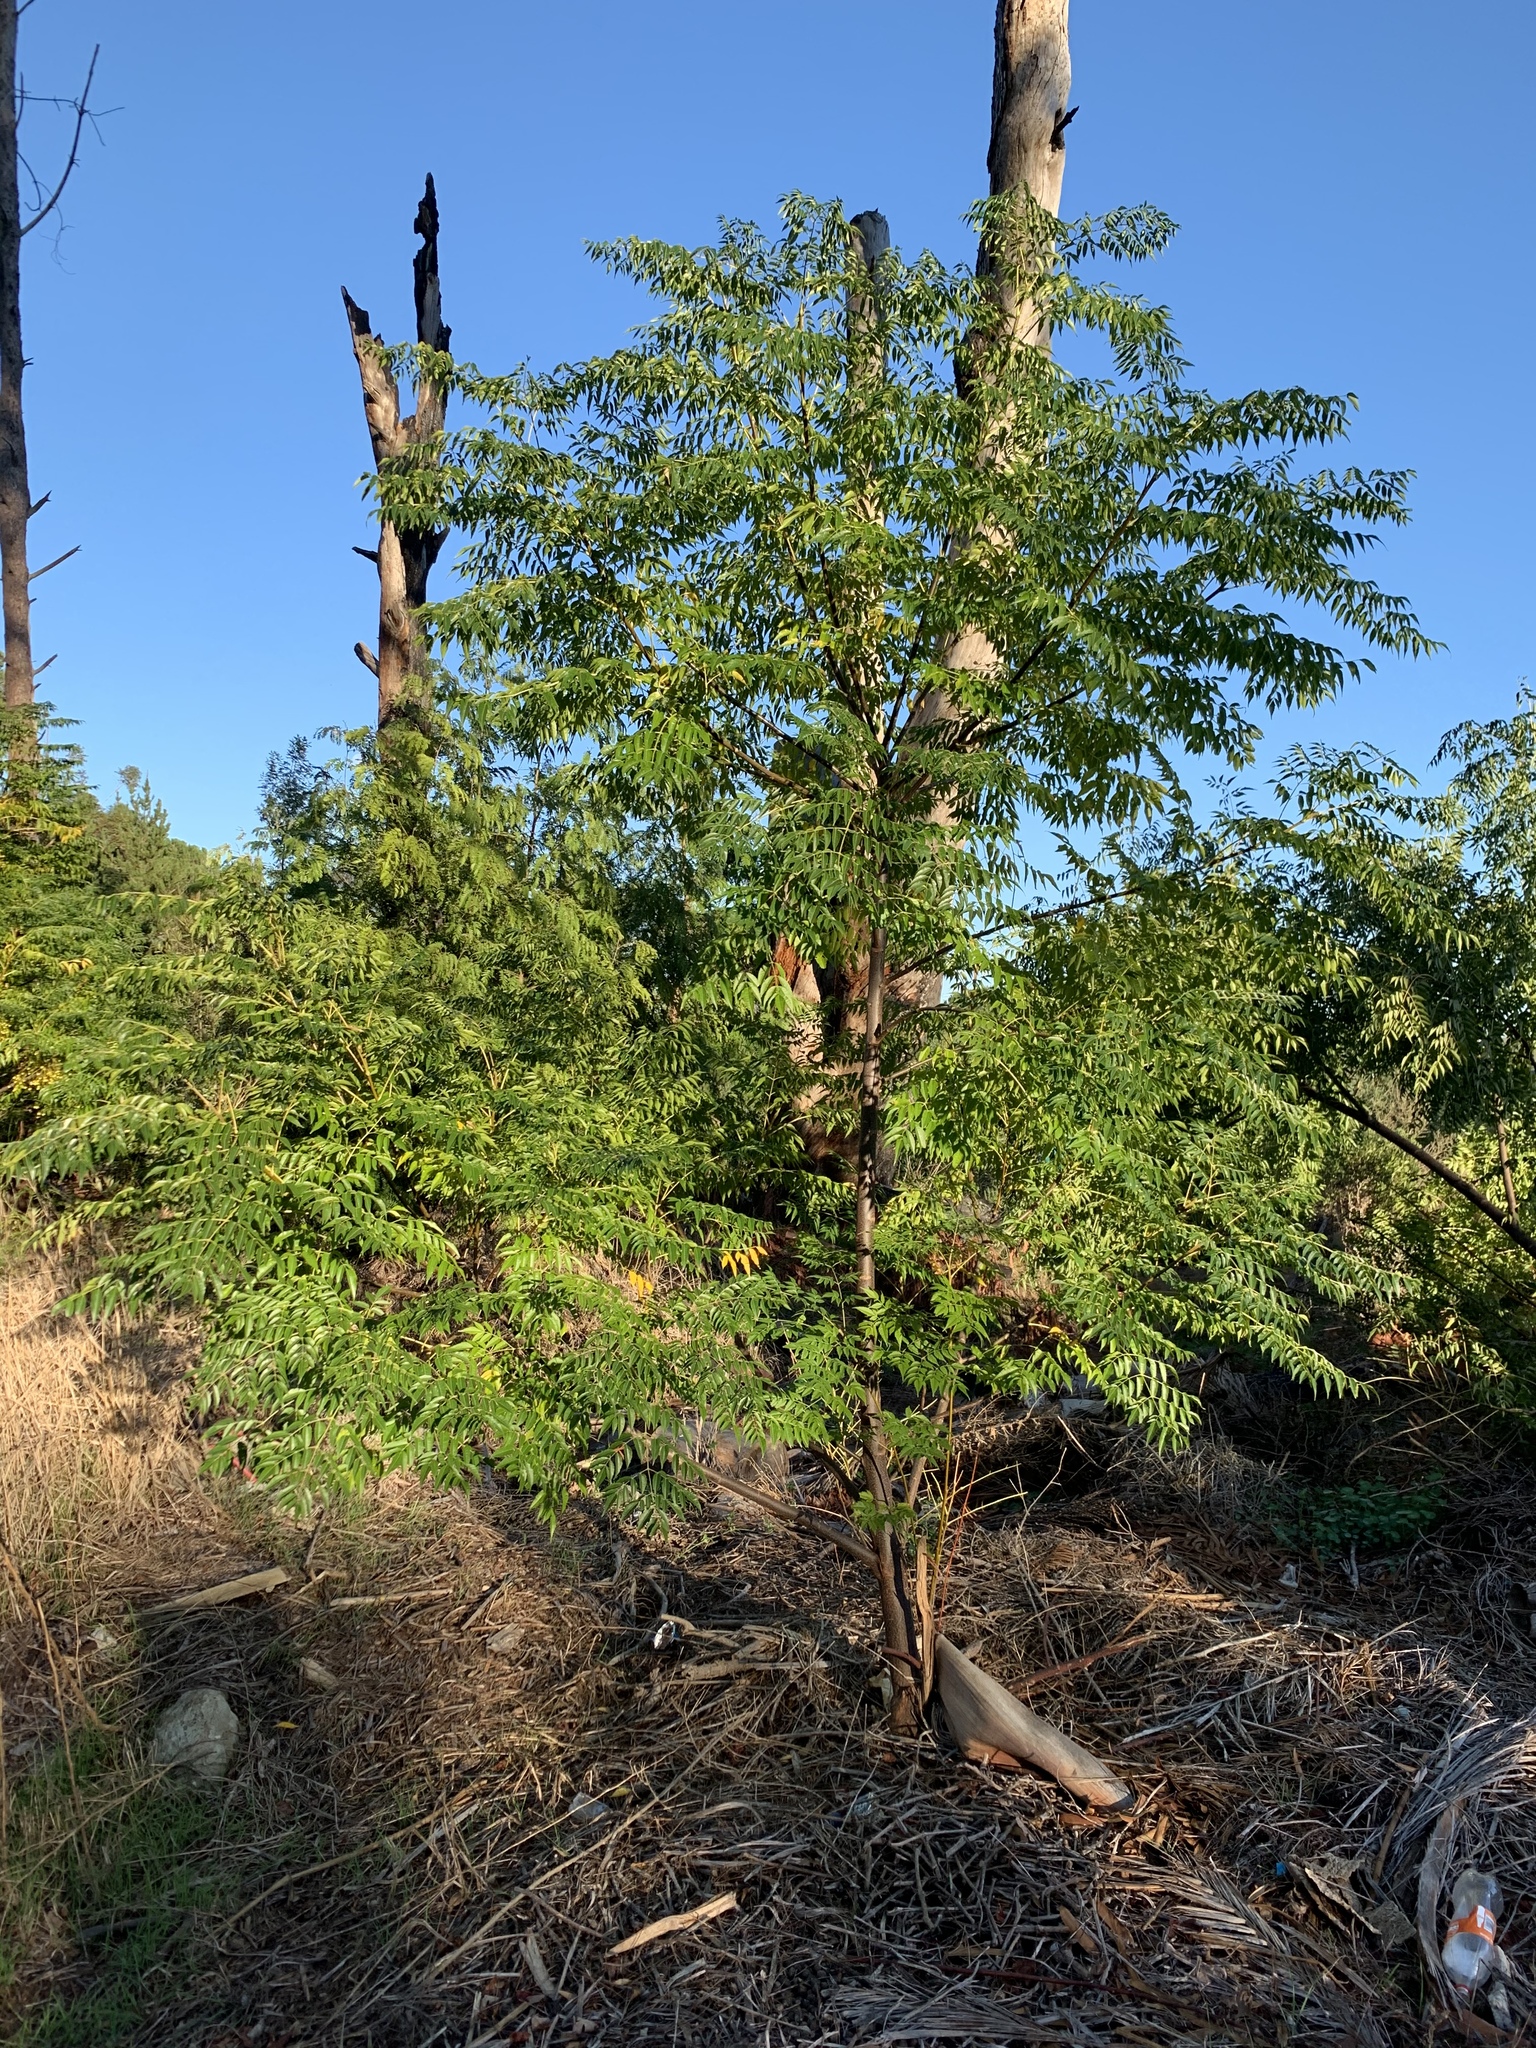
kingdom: Plantae
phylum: Tracheophyta
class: Magnoliopsida
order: Sapindales
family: Meliaceae
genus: Melia
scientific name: Melia azedarach
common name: Chinaberrytree
